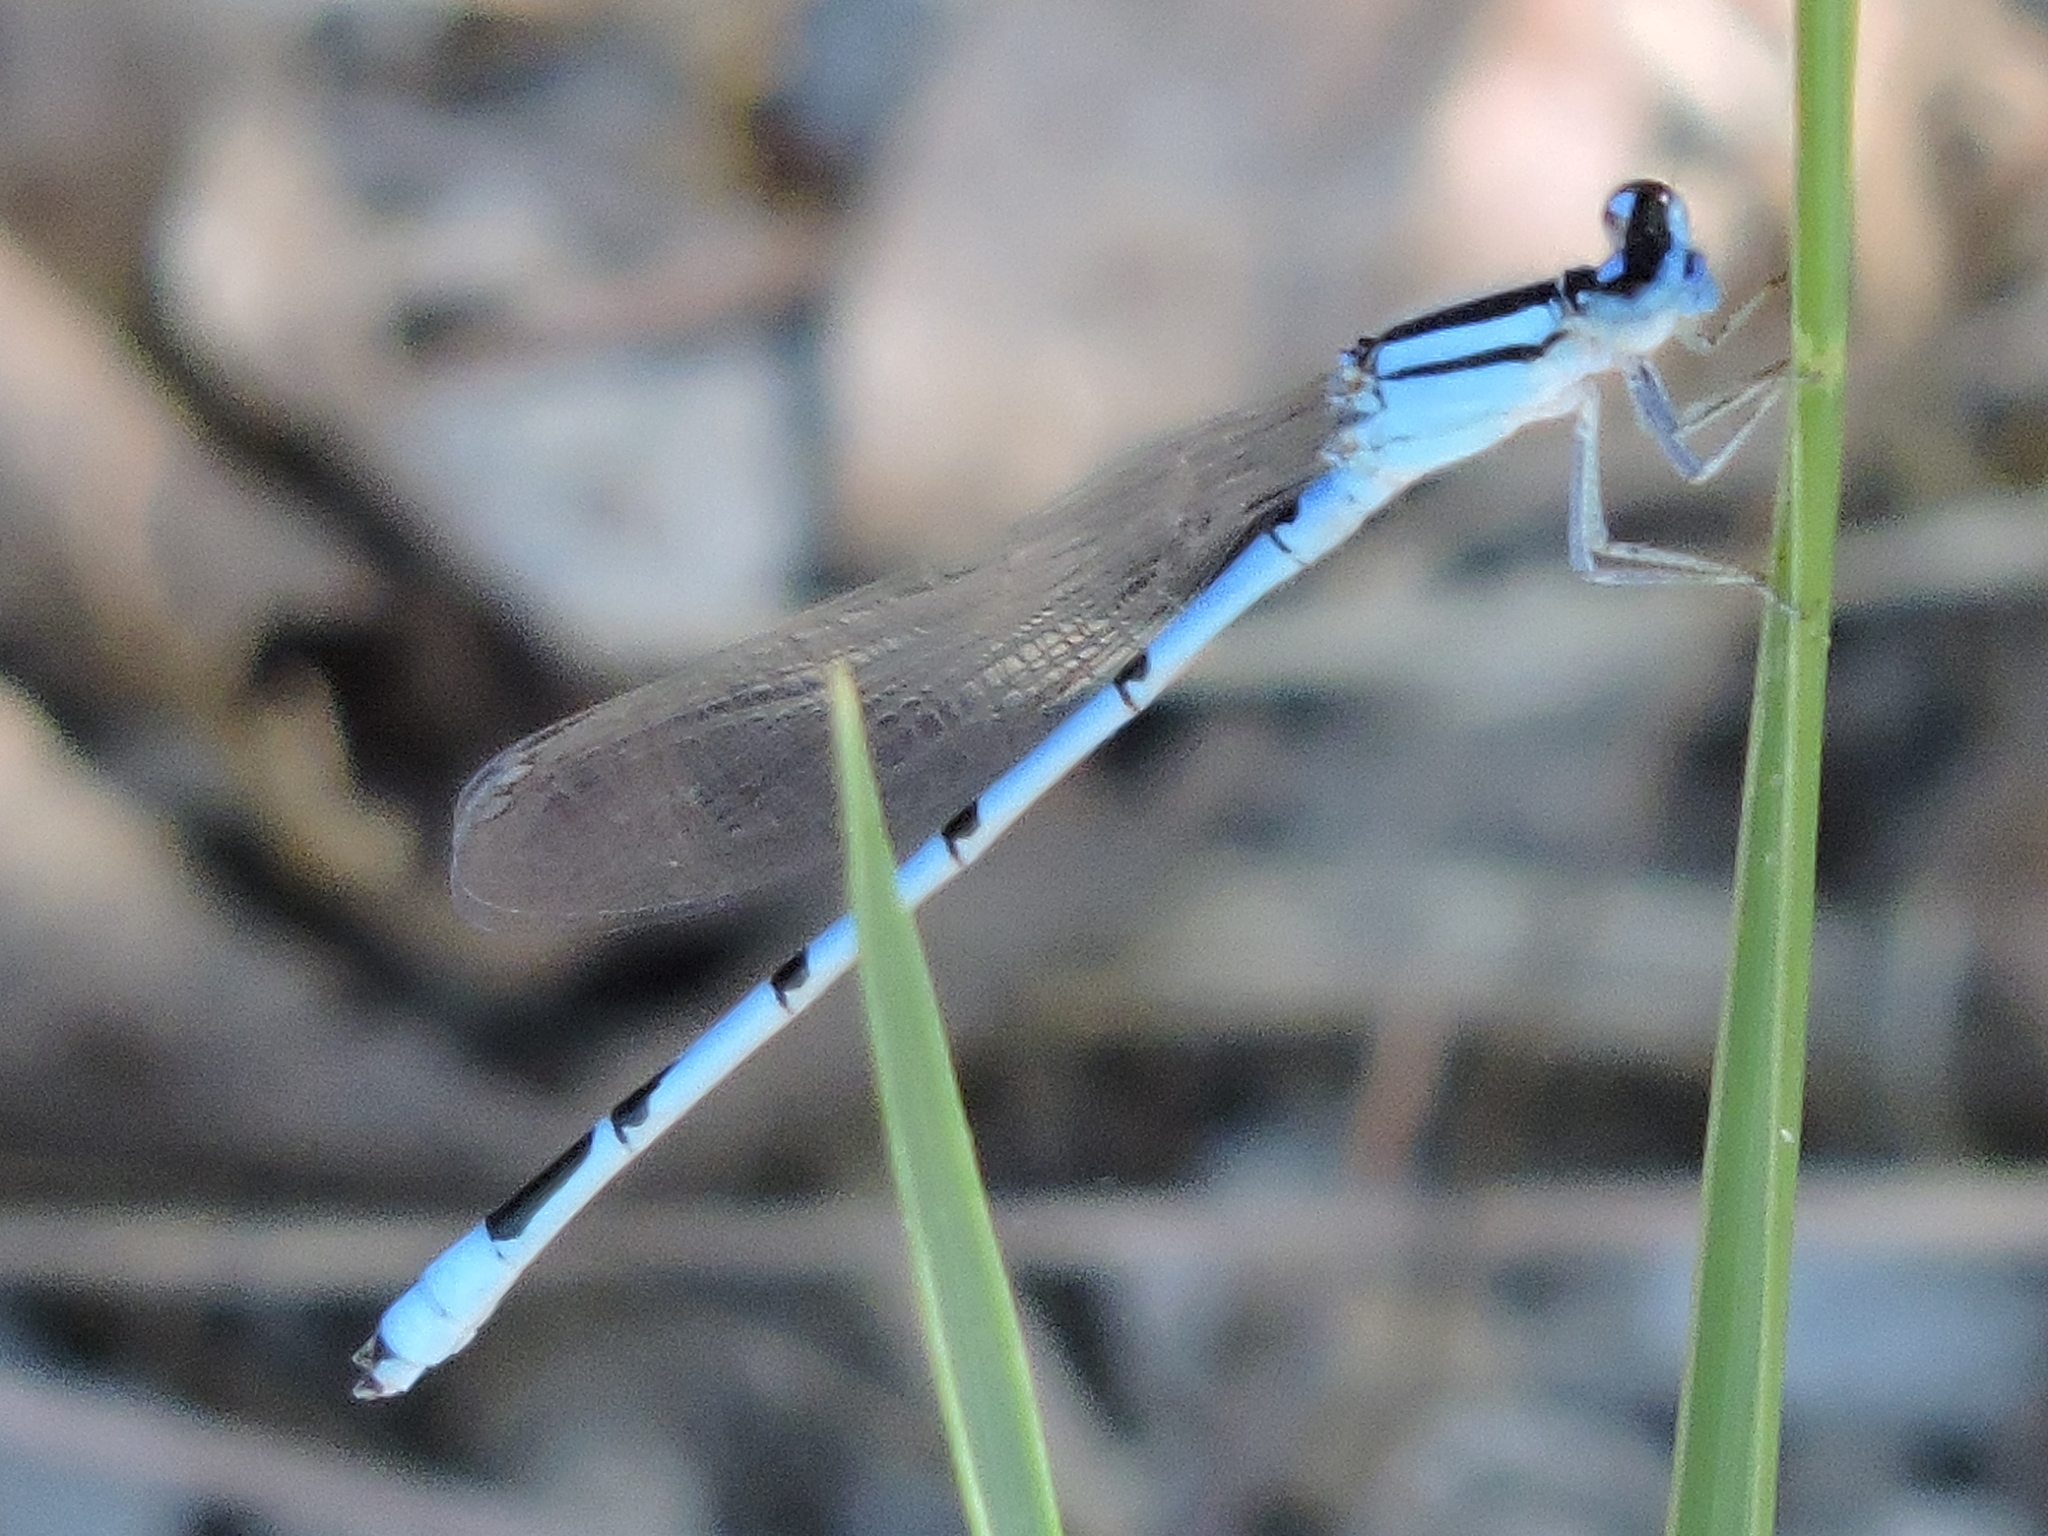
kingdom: Animalia
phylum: Arthropoda
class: Insecta
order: Odonata
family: Coenagrionidae
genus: Enallagma
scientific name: Enallagma civile
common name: Damselfly
